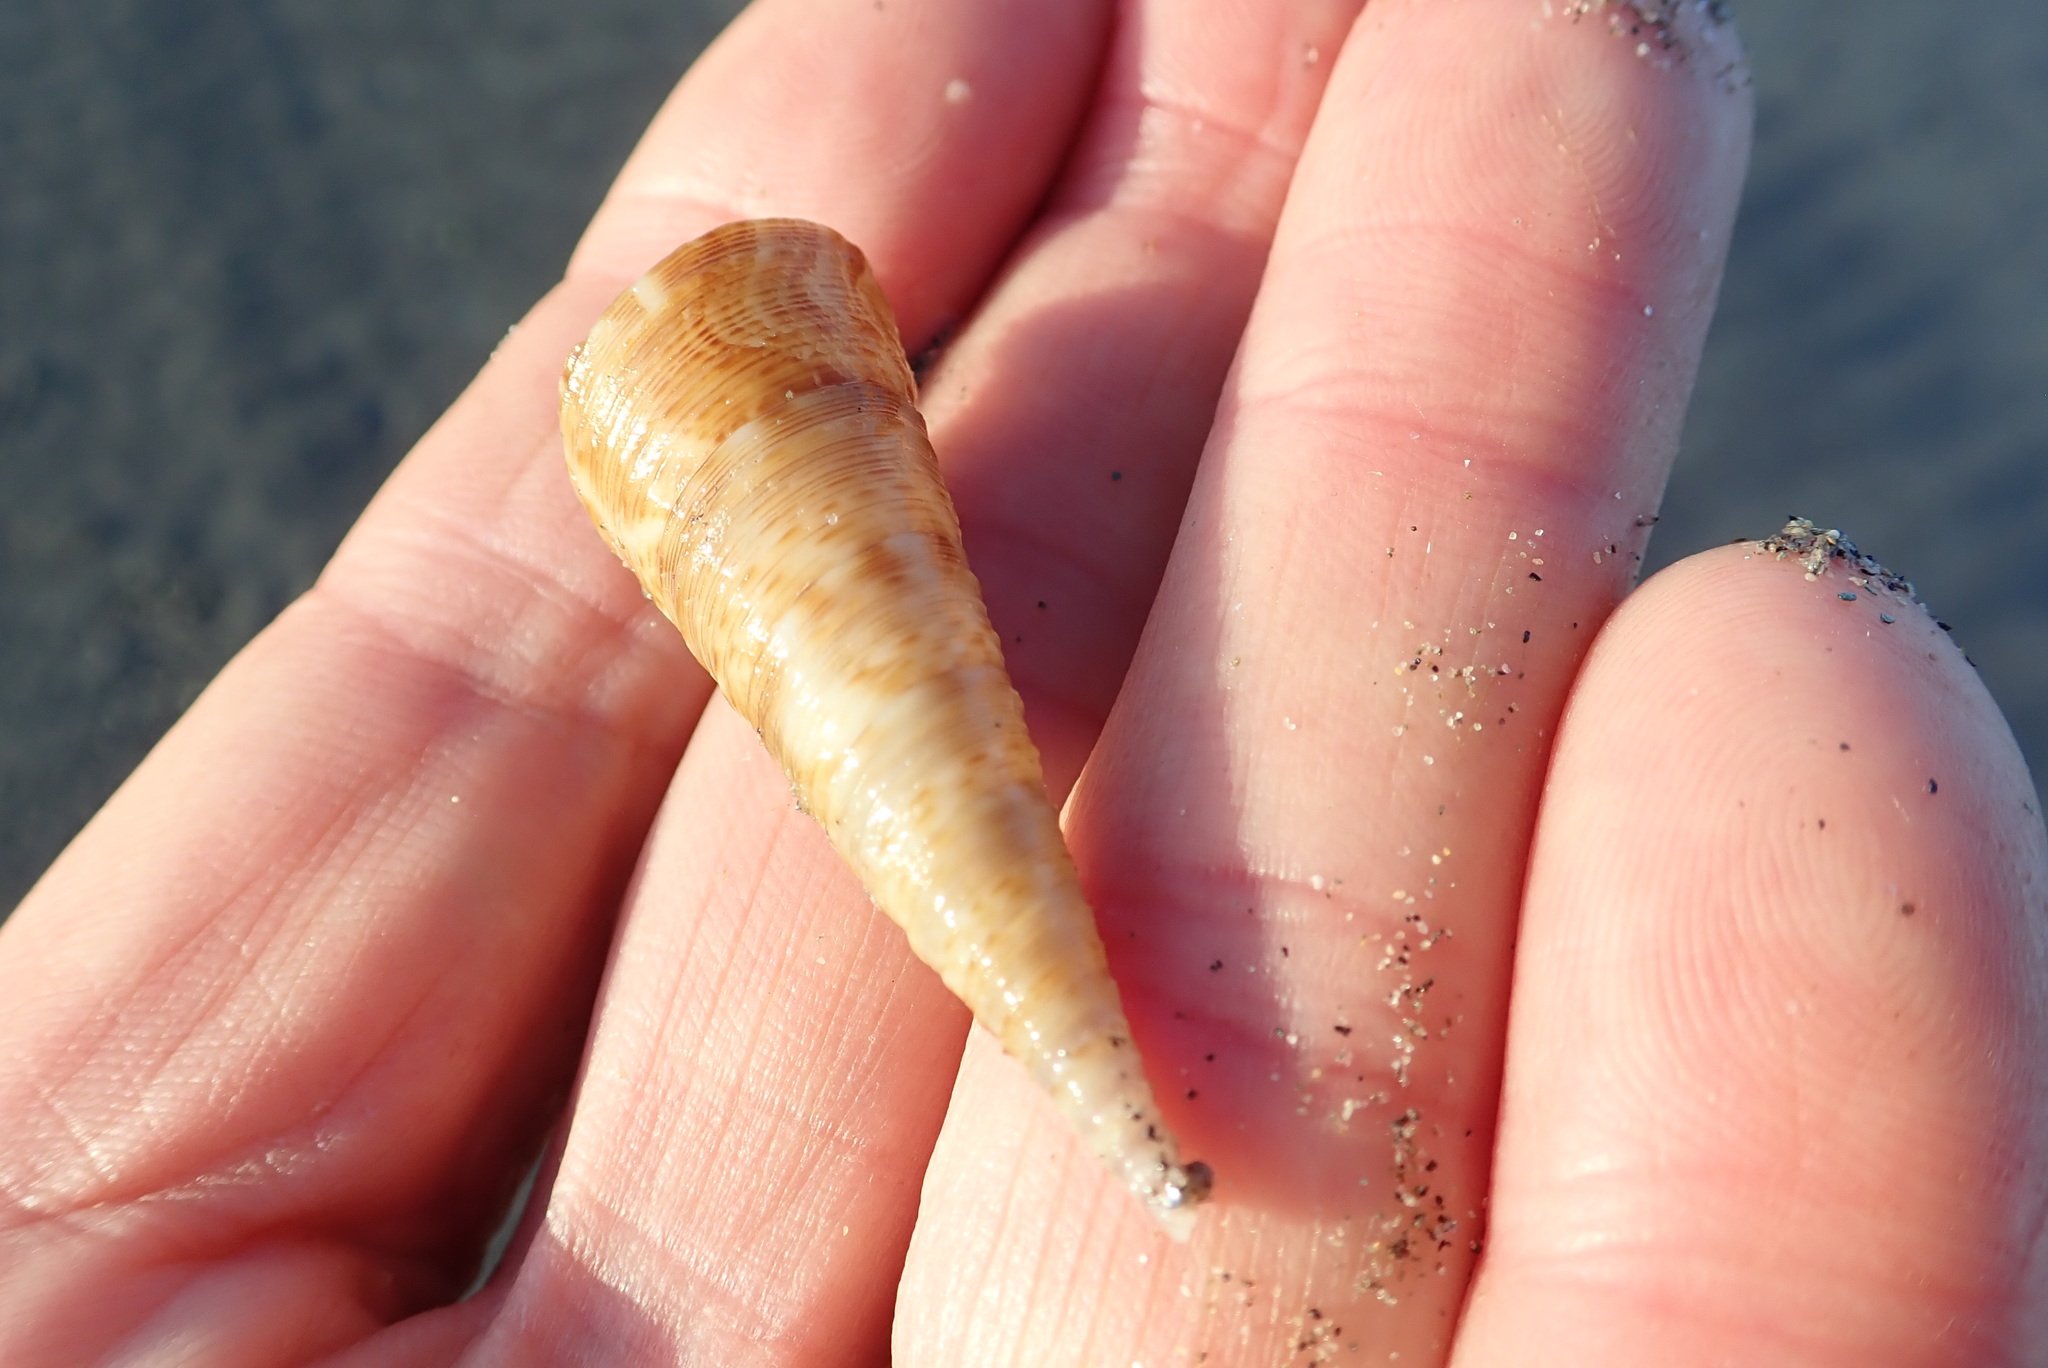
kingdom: Animalia
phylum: Mollusca
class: Gastropoda
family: Turritellidae
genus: Maoricolpus
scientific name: Maoricolpus roseus
